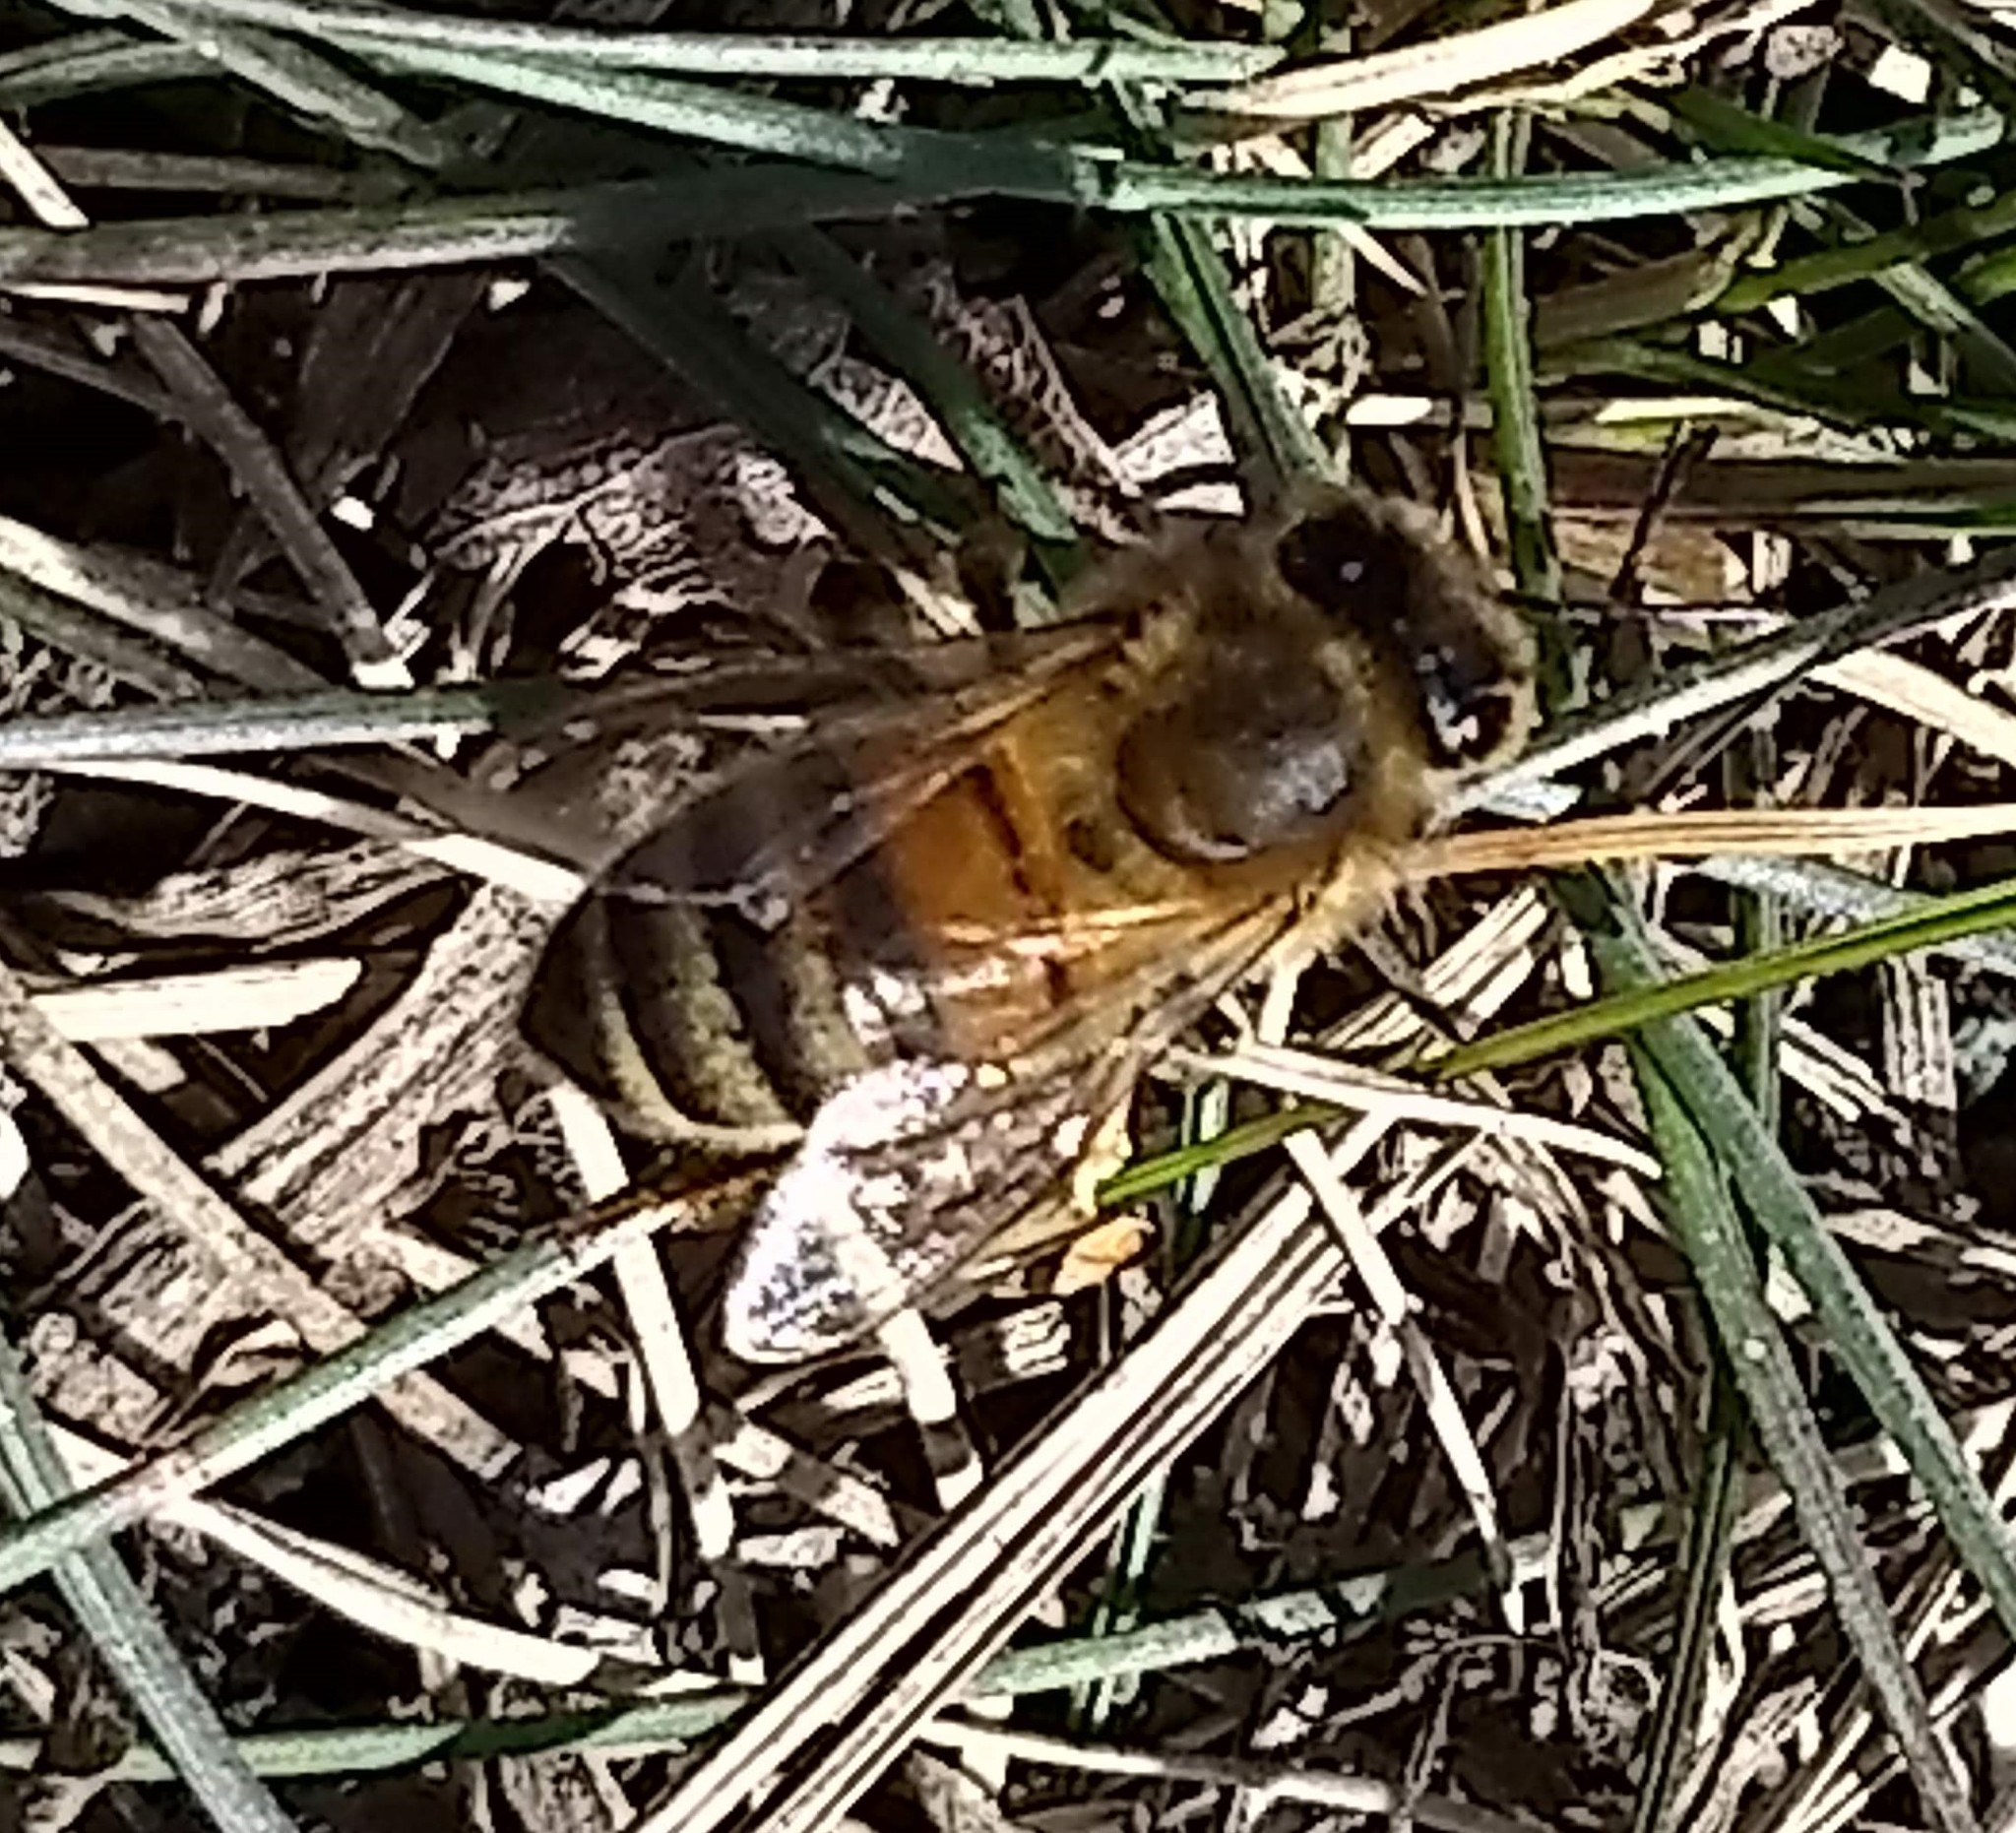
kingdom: Animalia
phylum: Arthropoda
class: Insecta
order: Hymenoptera
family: Apidae
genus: Apis
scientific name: Apis mellifera
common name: Honey bee
